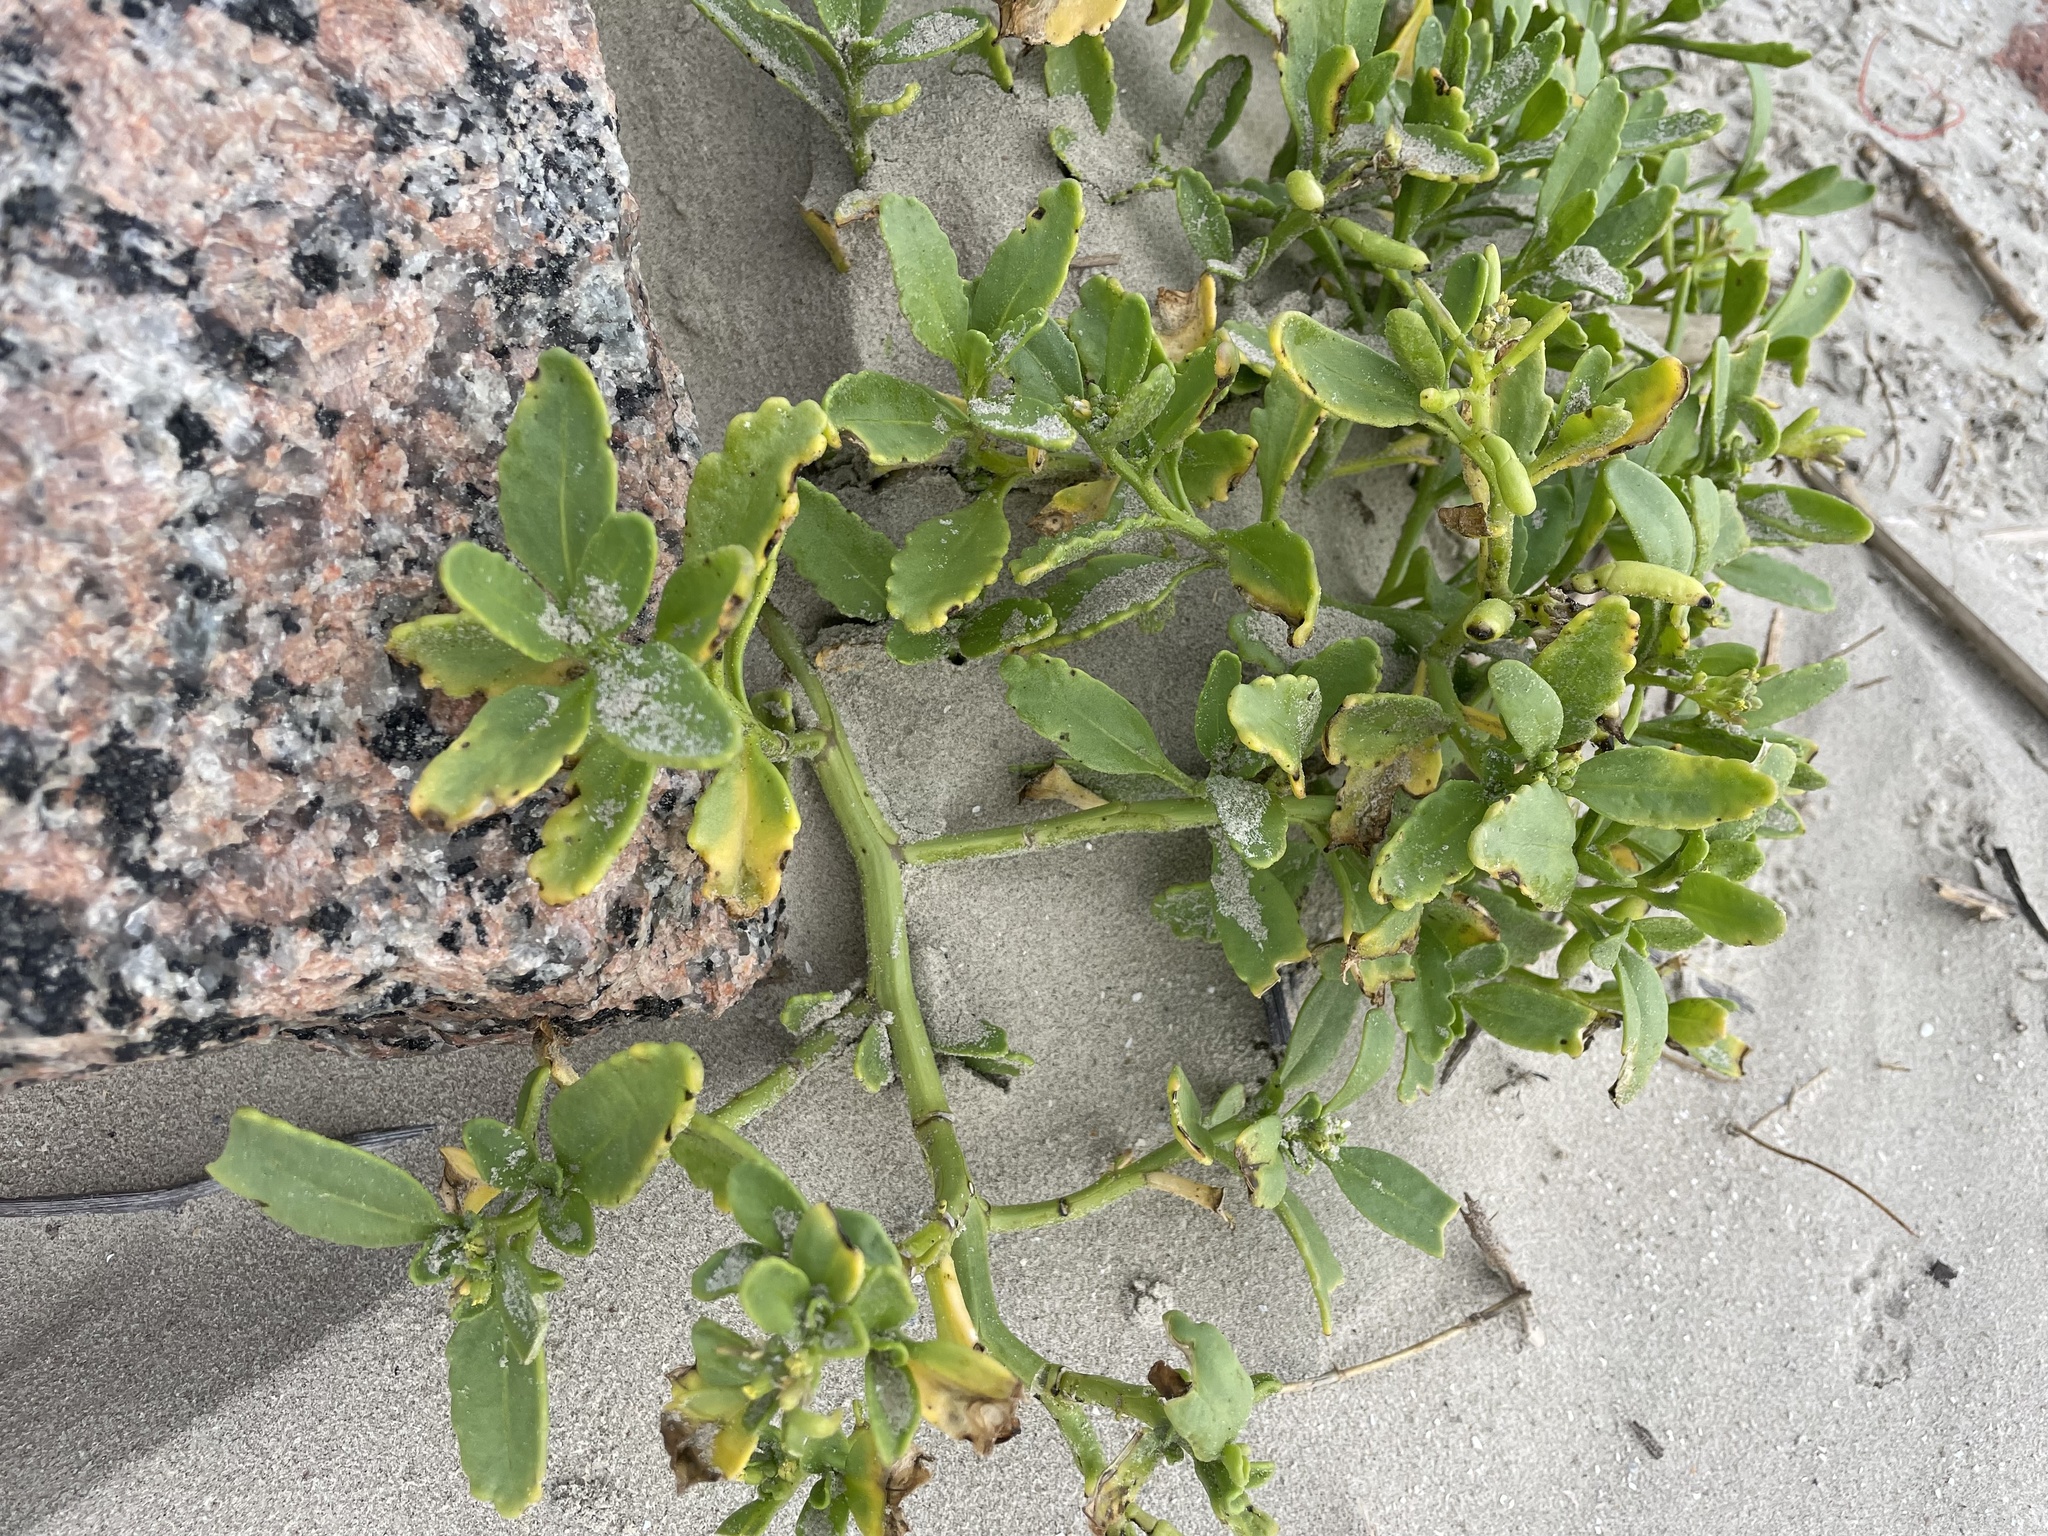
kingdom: Plantae
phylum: Tracheophyta
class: Magnoliopsida
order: Brassicales
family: Brassicaceae
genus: Cakile
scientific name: Cakile edentula
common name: American sea rocket
